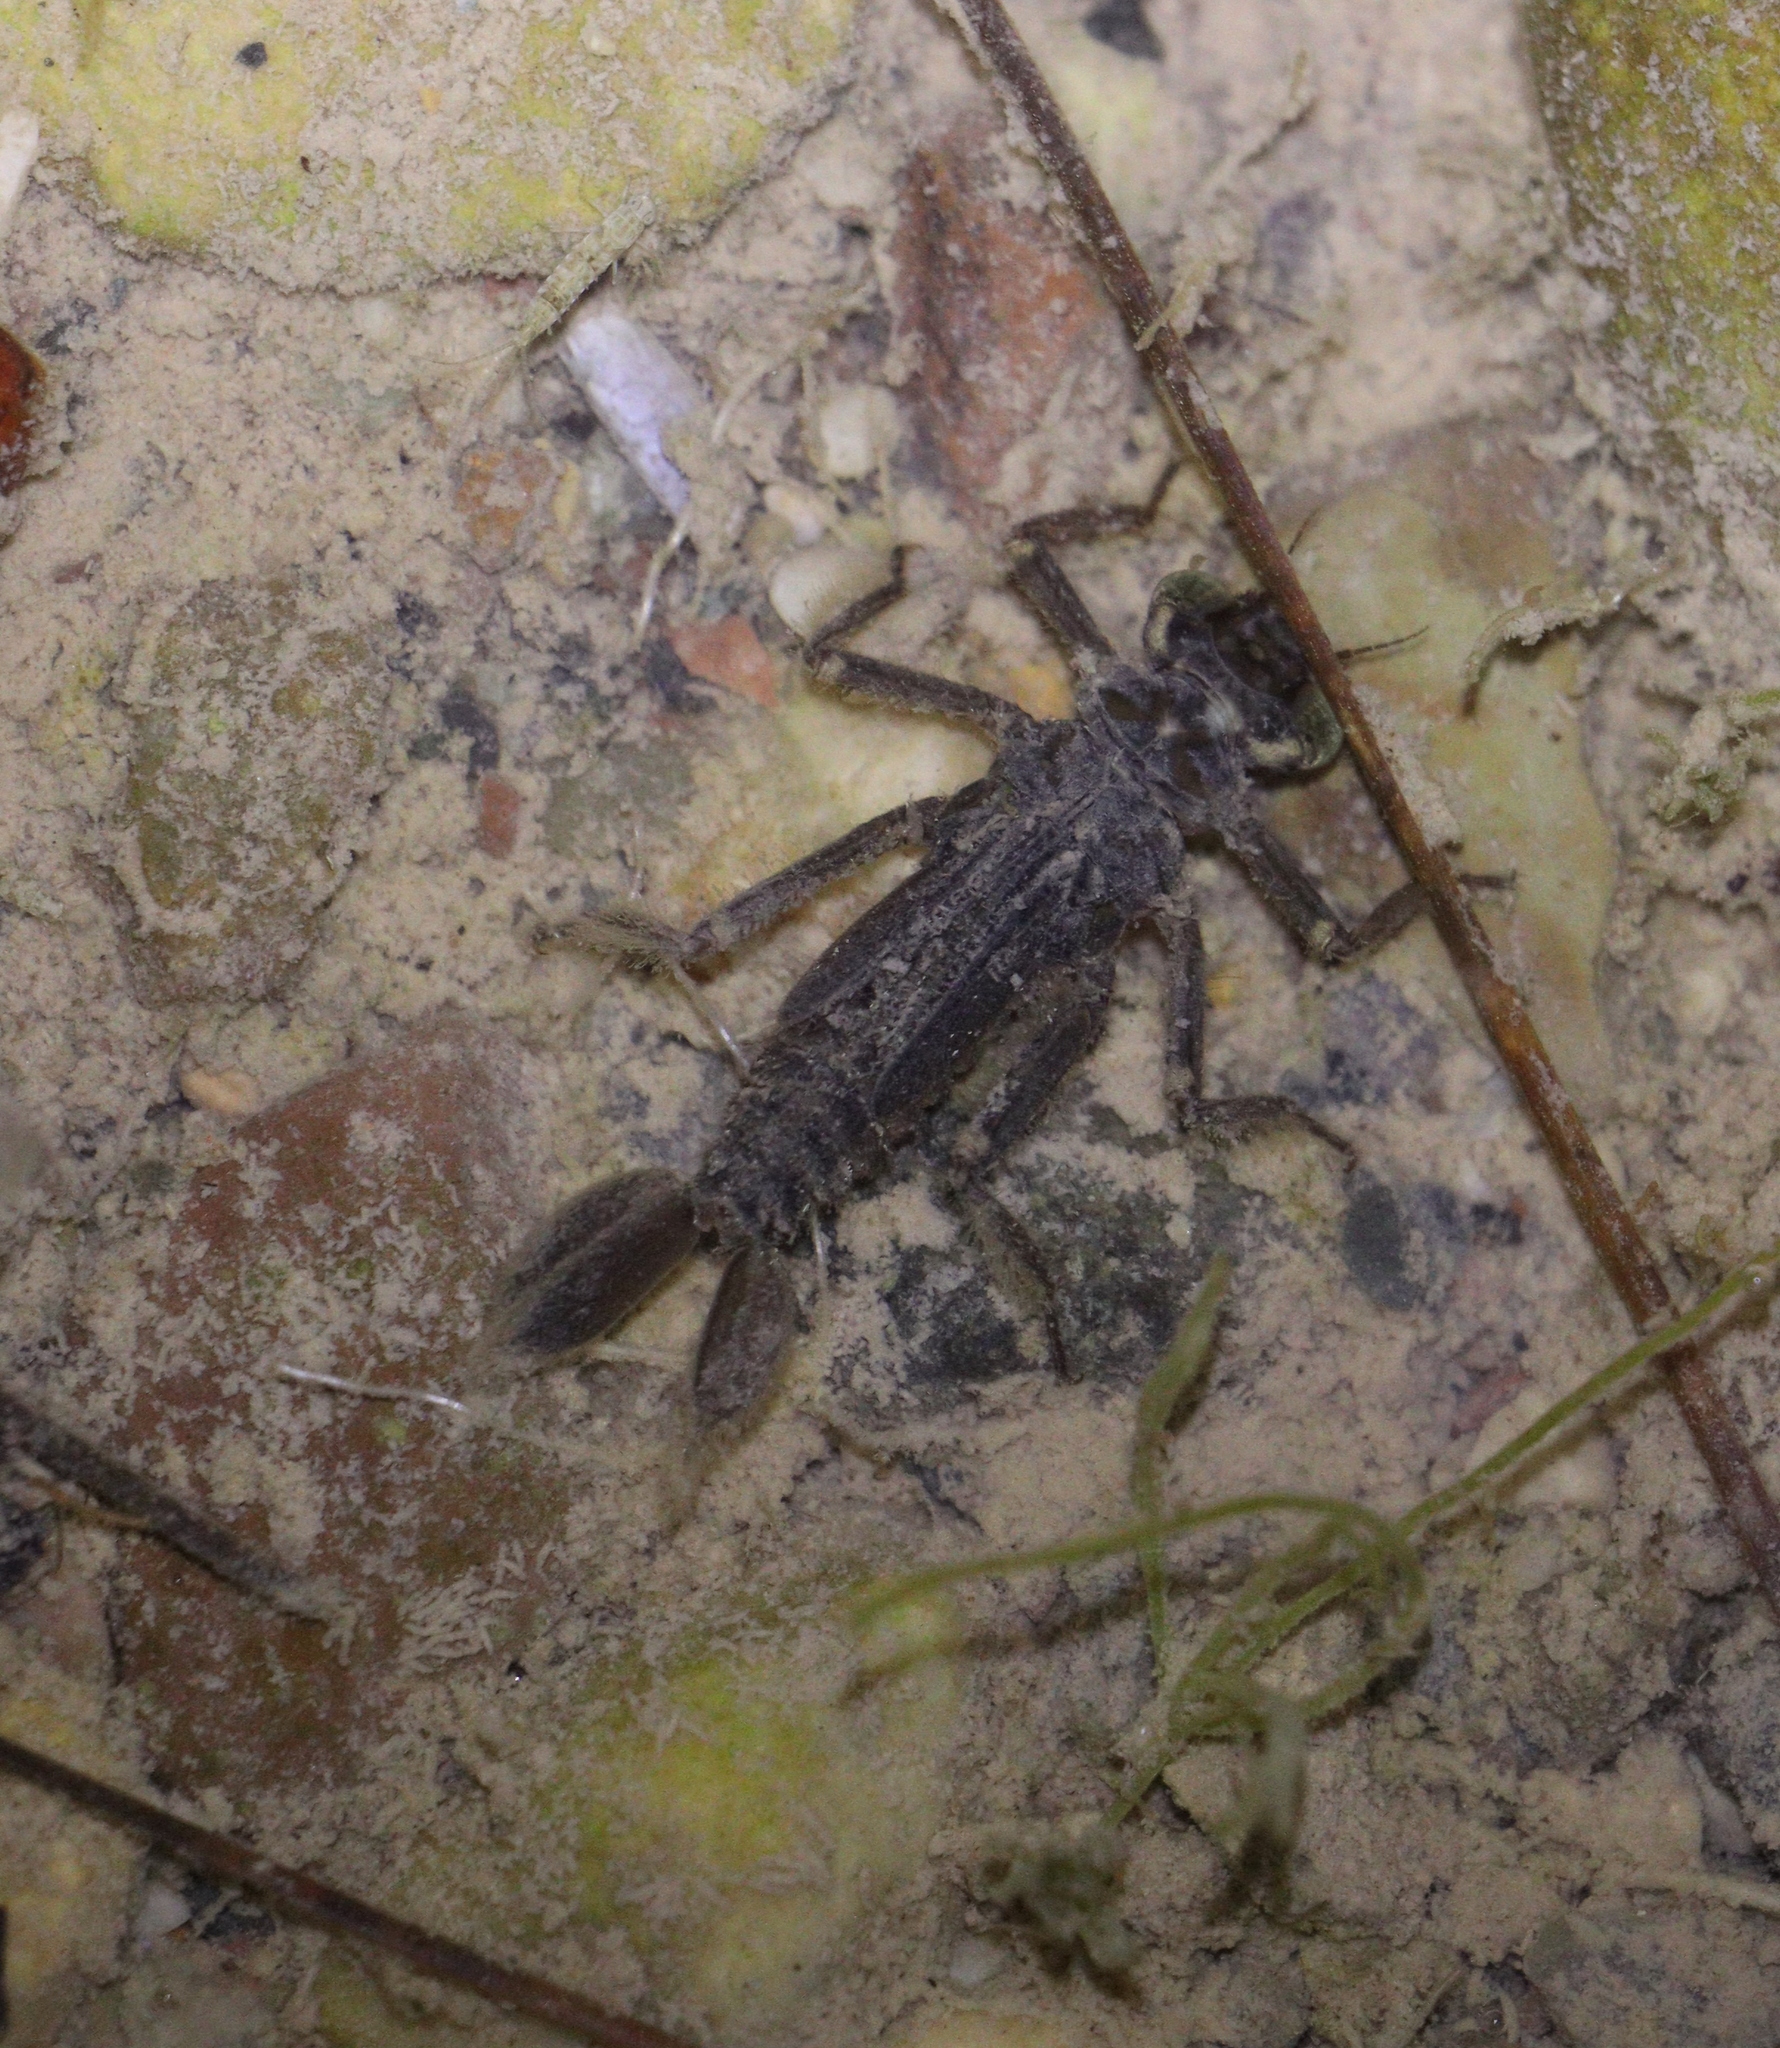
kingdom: Animalia
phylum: Arthropoda
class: Insecta
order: Odonata
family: Euphaeidae
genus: Epallage
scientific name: Epallage fatime
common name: Odalisque
